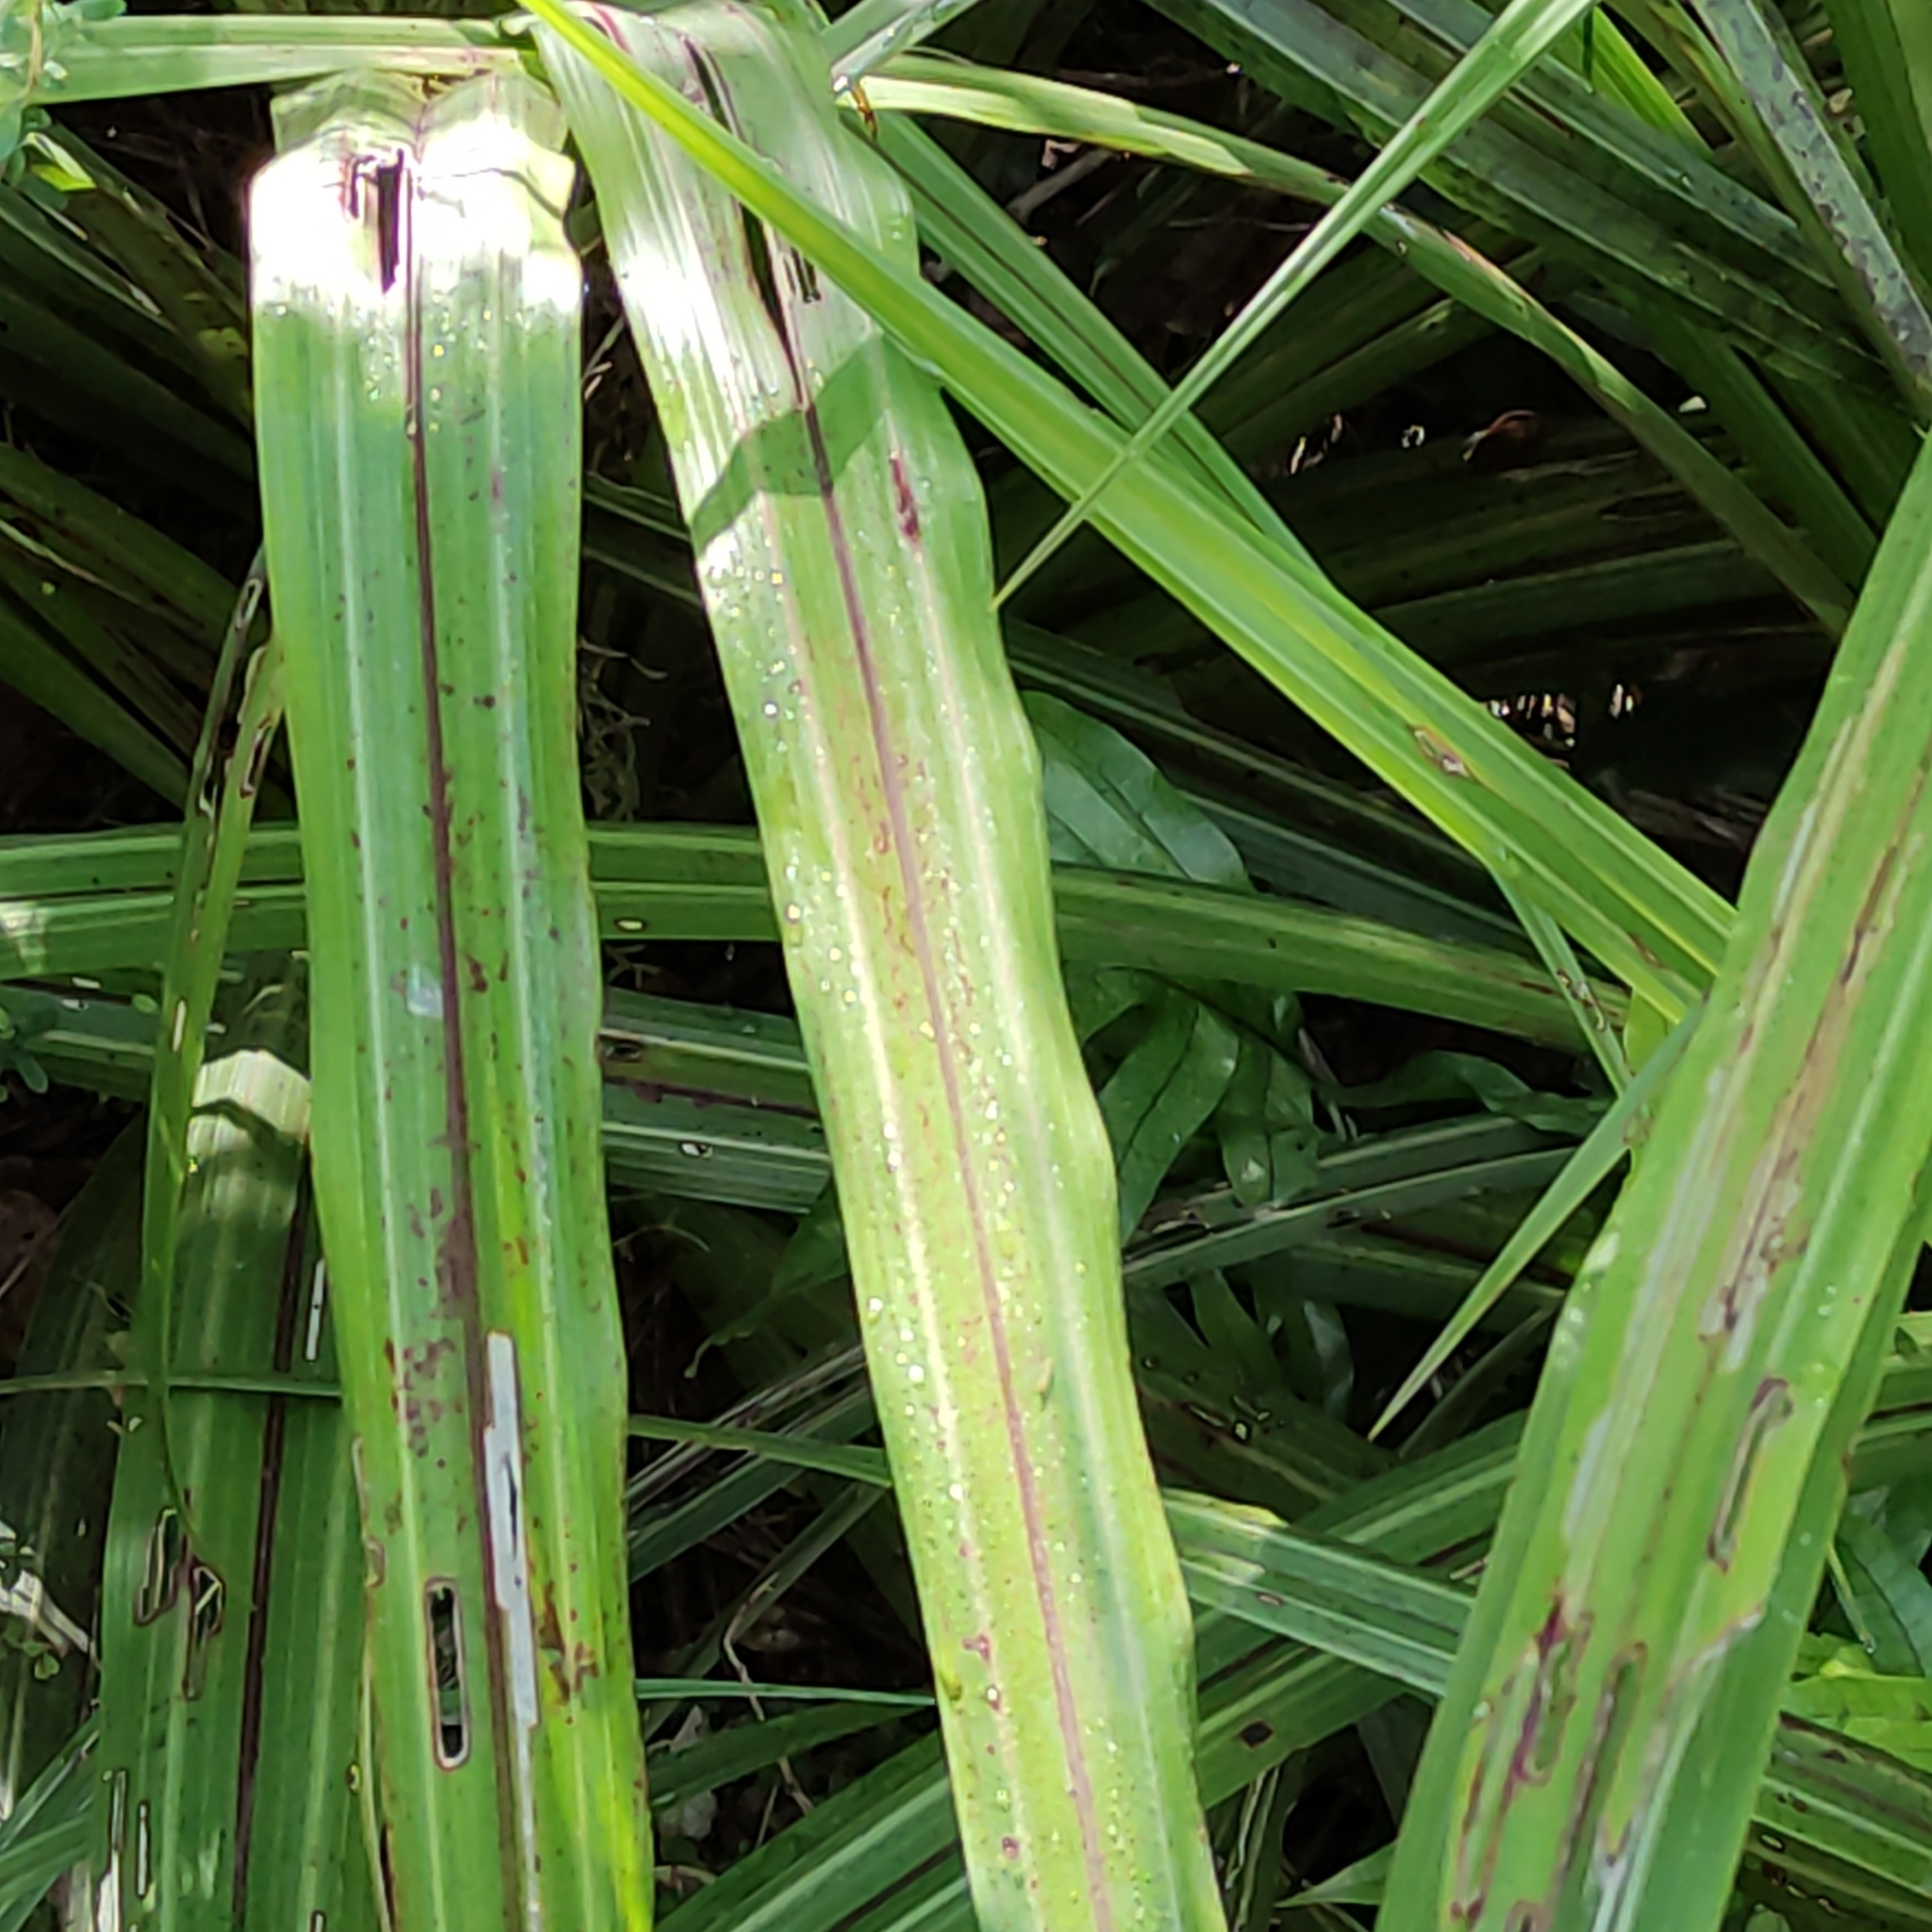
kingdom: Plantae
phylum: Tracheophyta
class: Liliopsida
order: Asparagales
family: Asteliaceae
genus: Astelia
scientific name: Astelia fragrans
